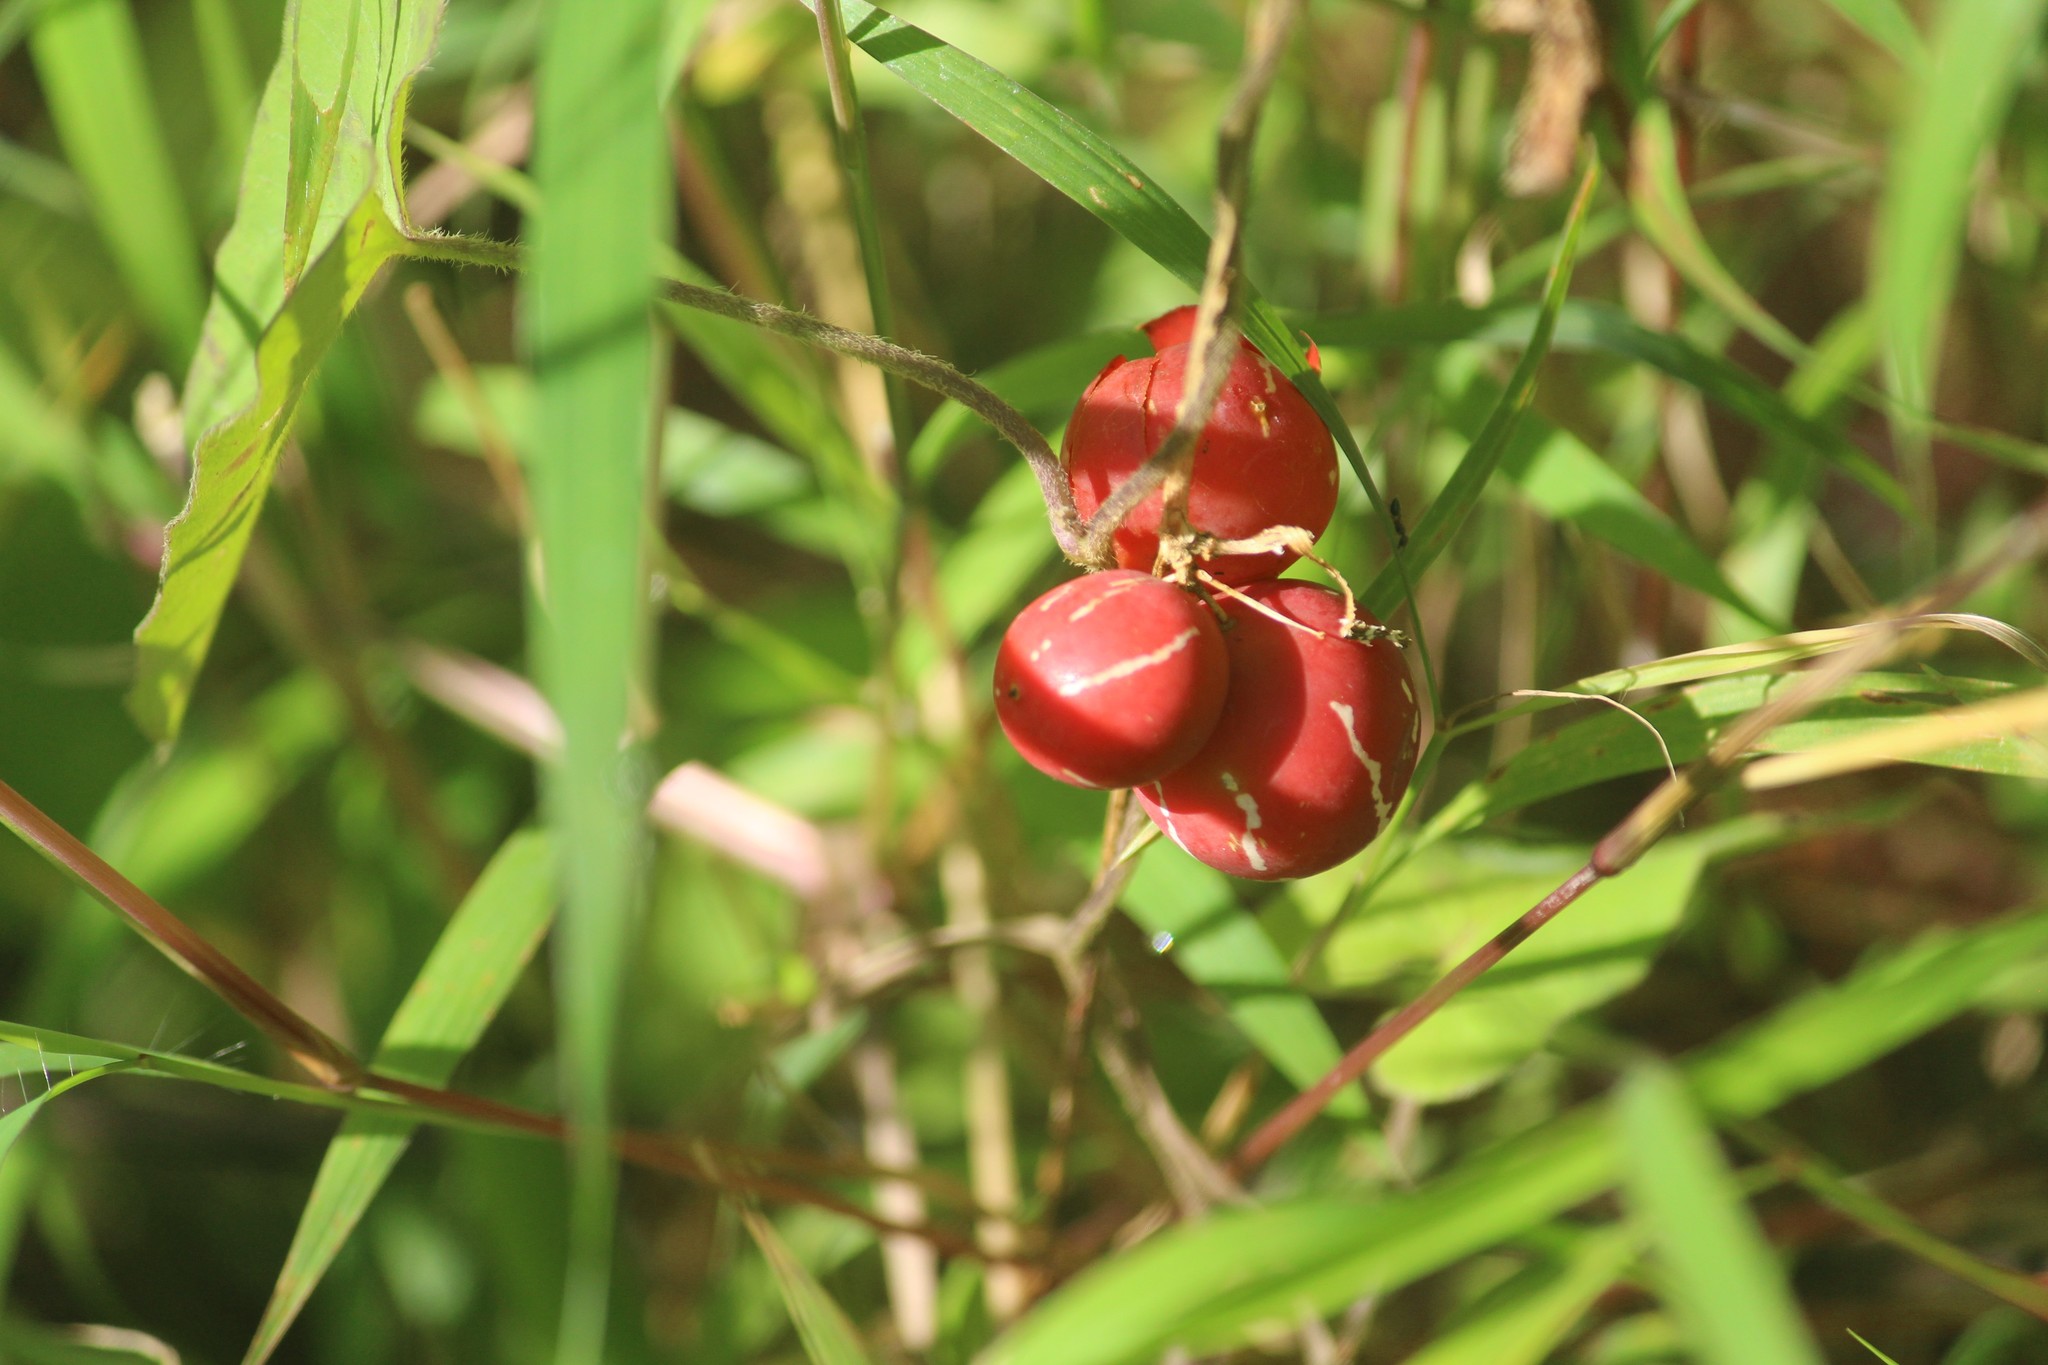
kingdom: Plantae
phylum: Tracheophyta
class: Magnoliopsida
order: Cucurbitales
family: Cucurbitaceae
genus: Diplocyclos
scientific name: Diplocyclos palmatus
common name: Striped-cucumber
